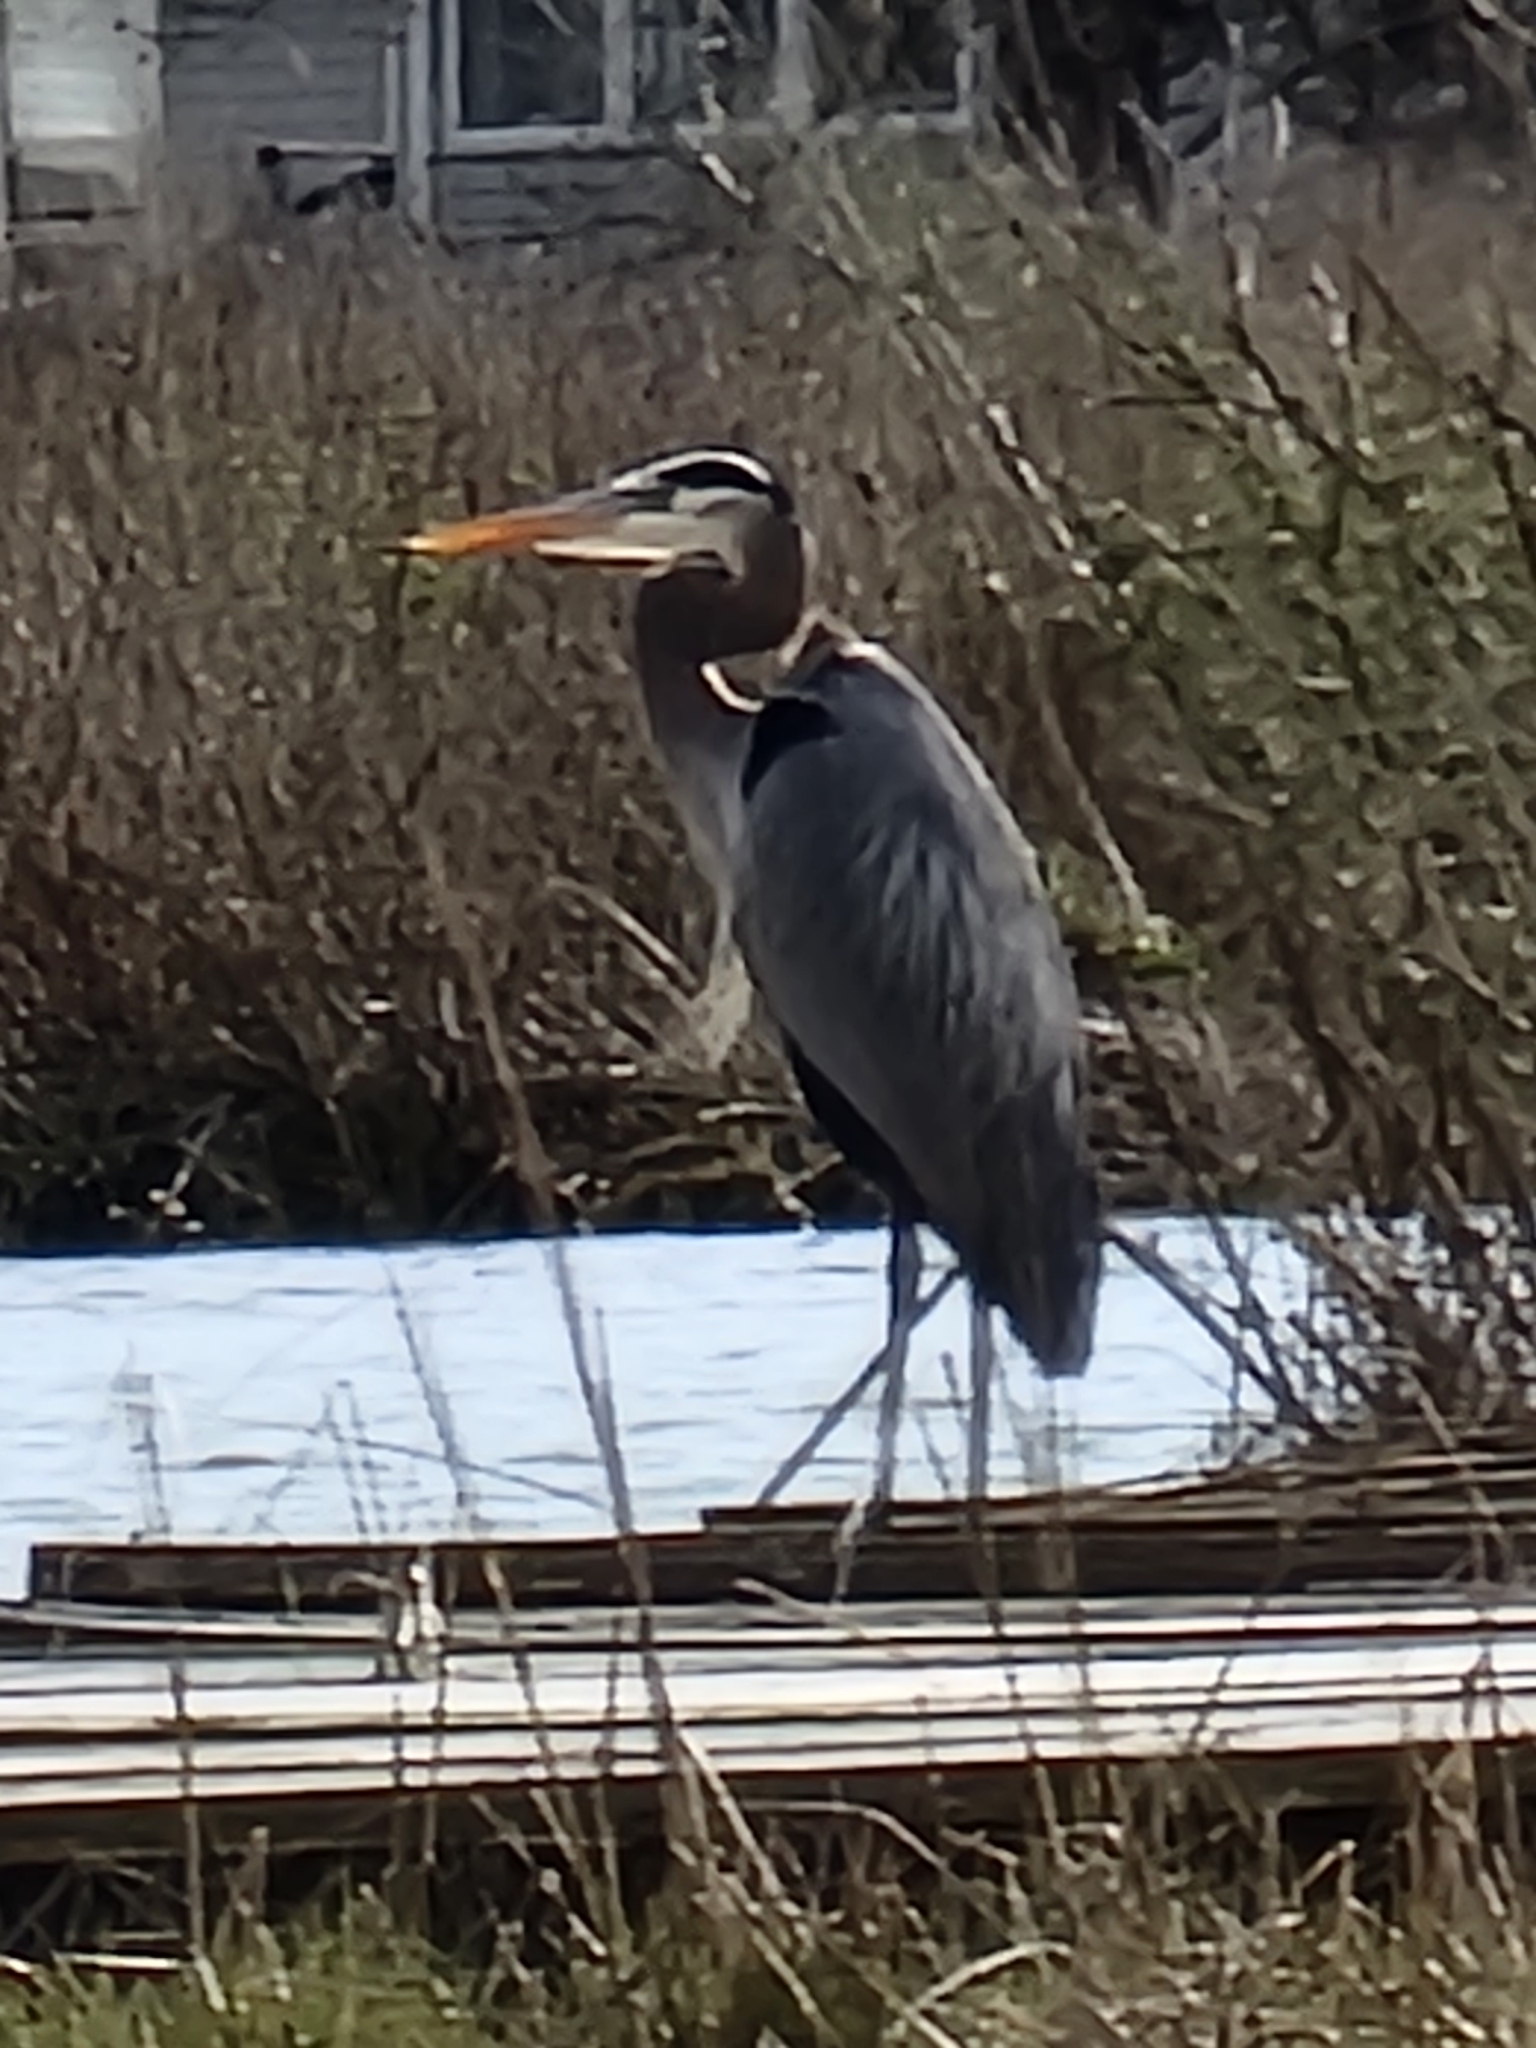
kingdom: Animalia
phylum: Chordata
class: Aves
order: Pelecaniformes
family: Ardeidae
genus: Ardea
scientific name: Ardea herodias
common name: Great blue heron
